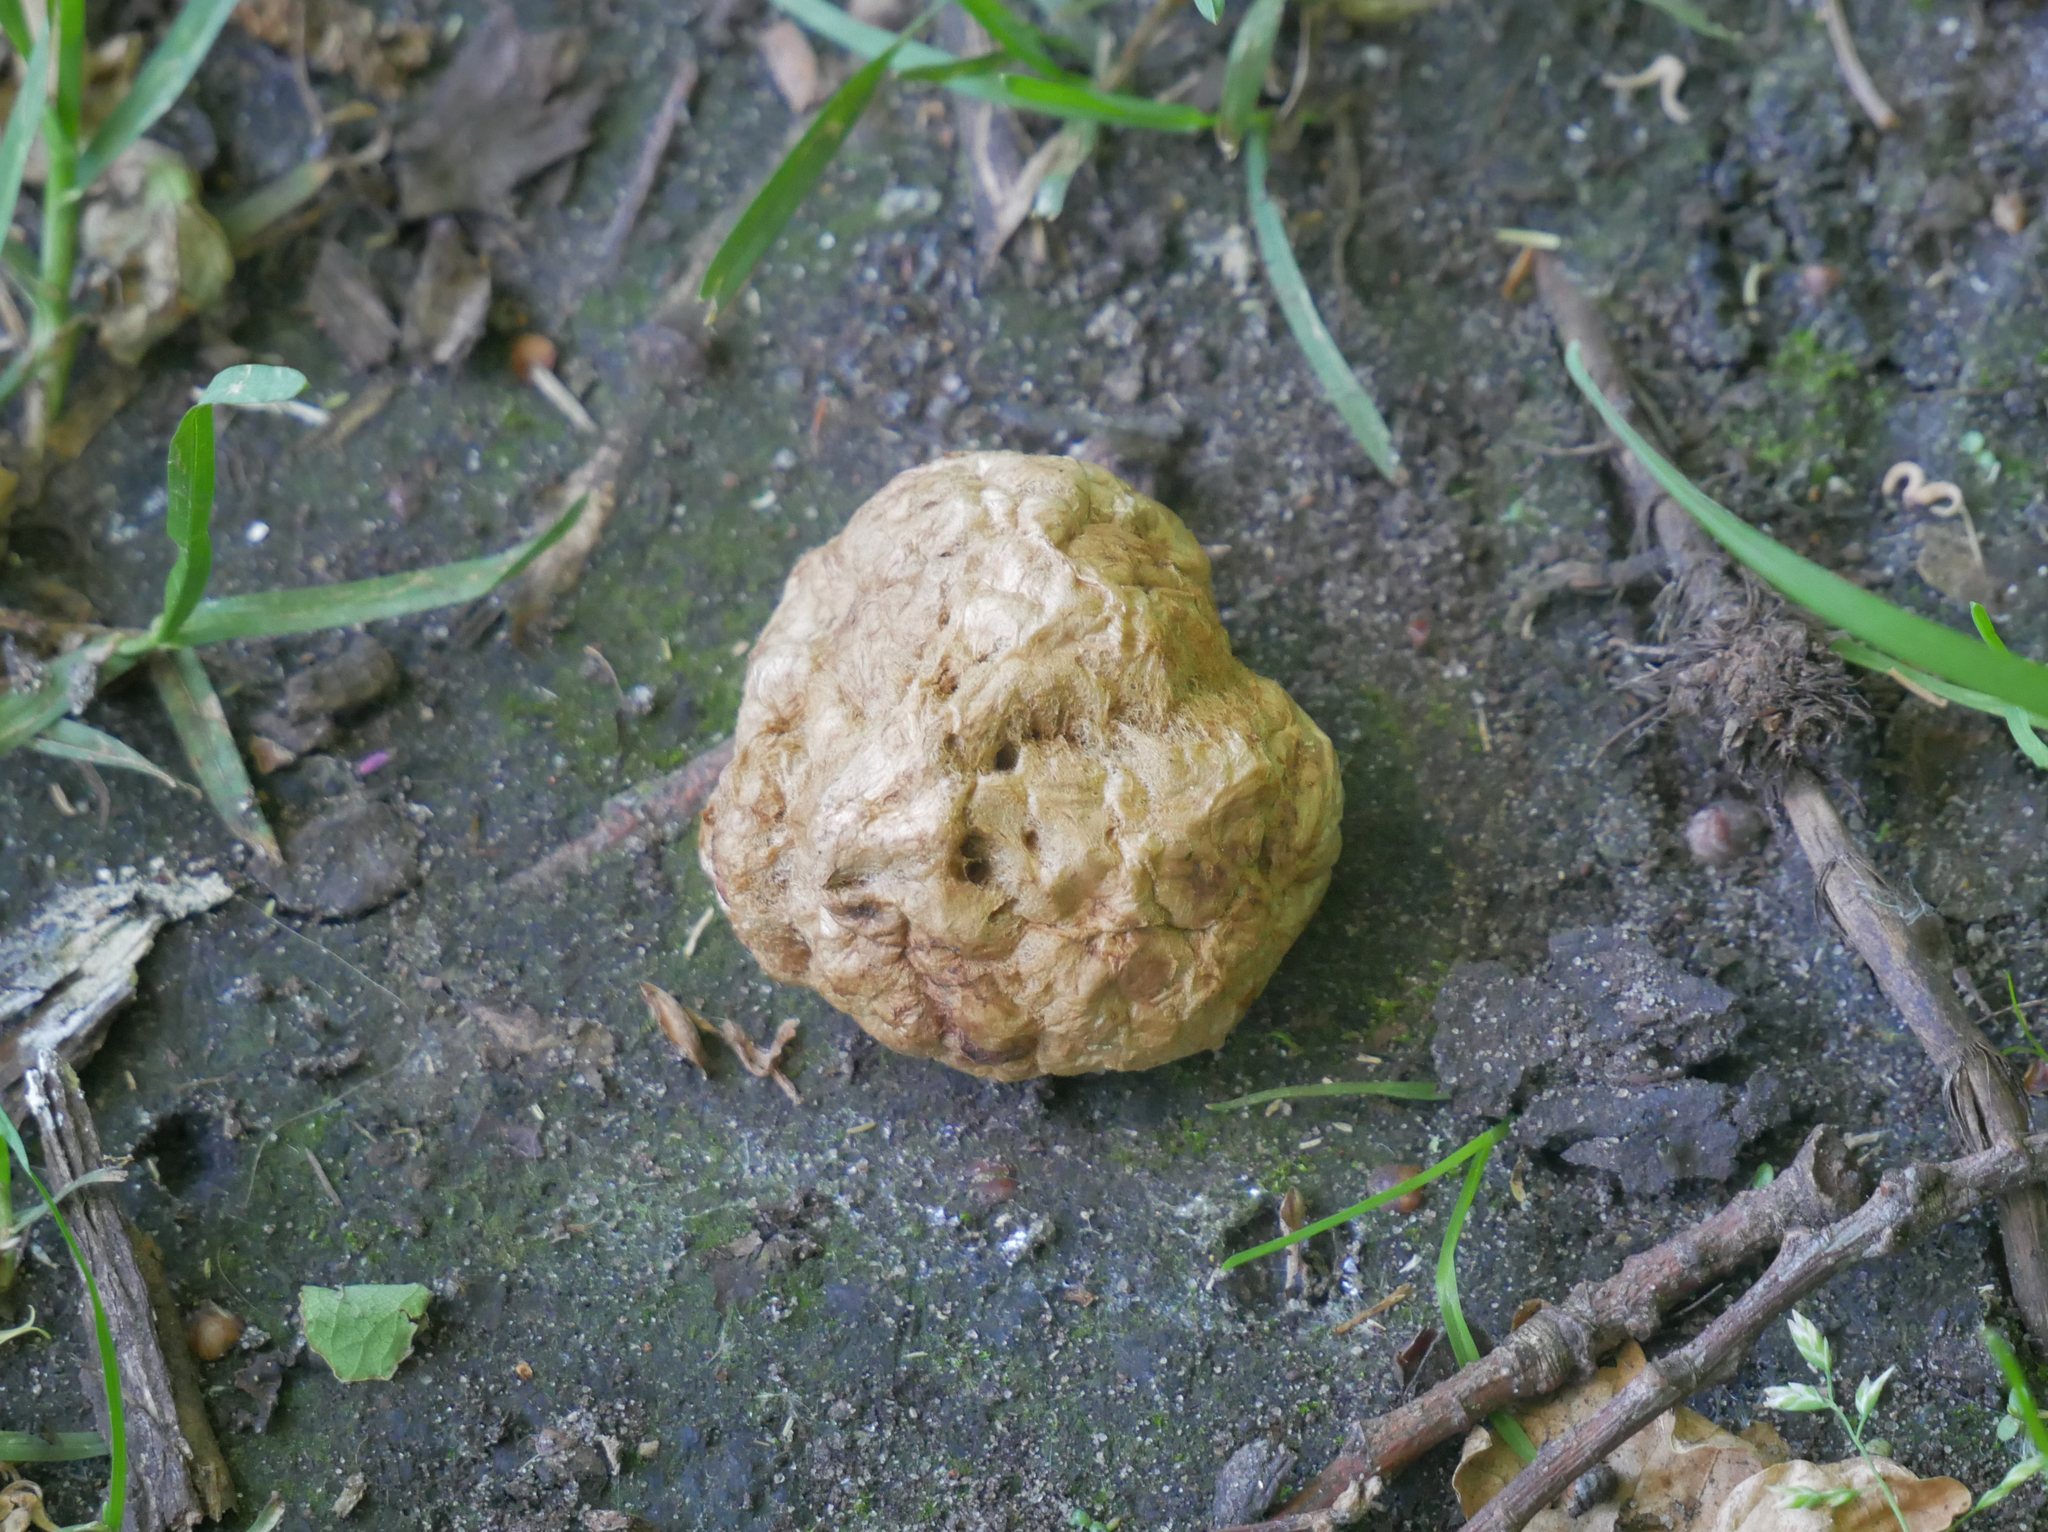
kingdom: Animalia
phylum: Arthropoda
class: Insecta
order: Hymenoptera
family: Cynipidae
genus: Biorhiza
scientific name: Biorhiza pallida
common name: Oak apple
